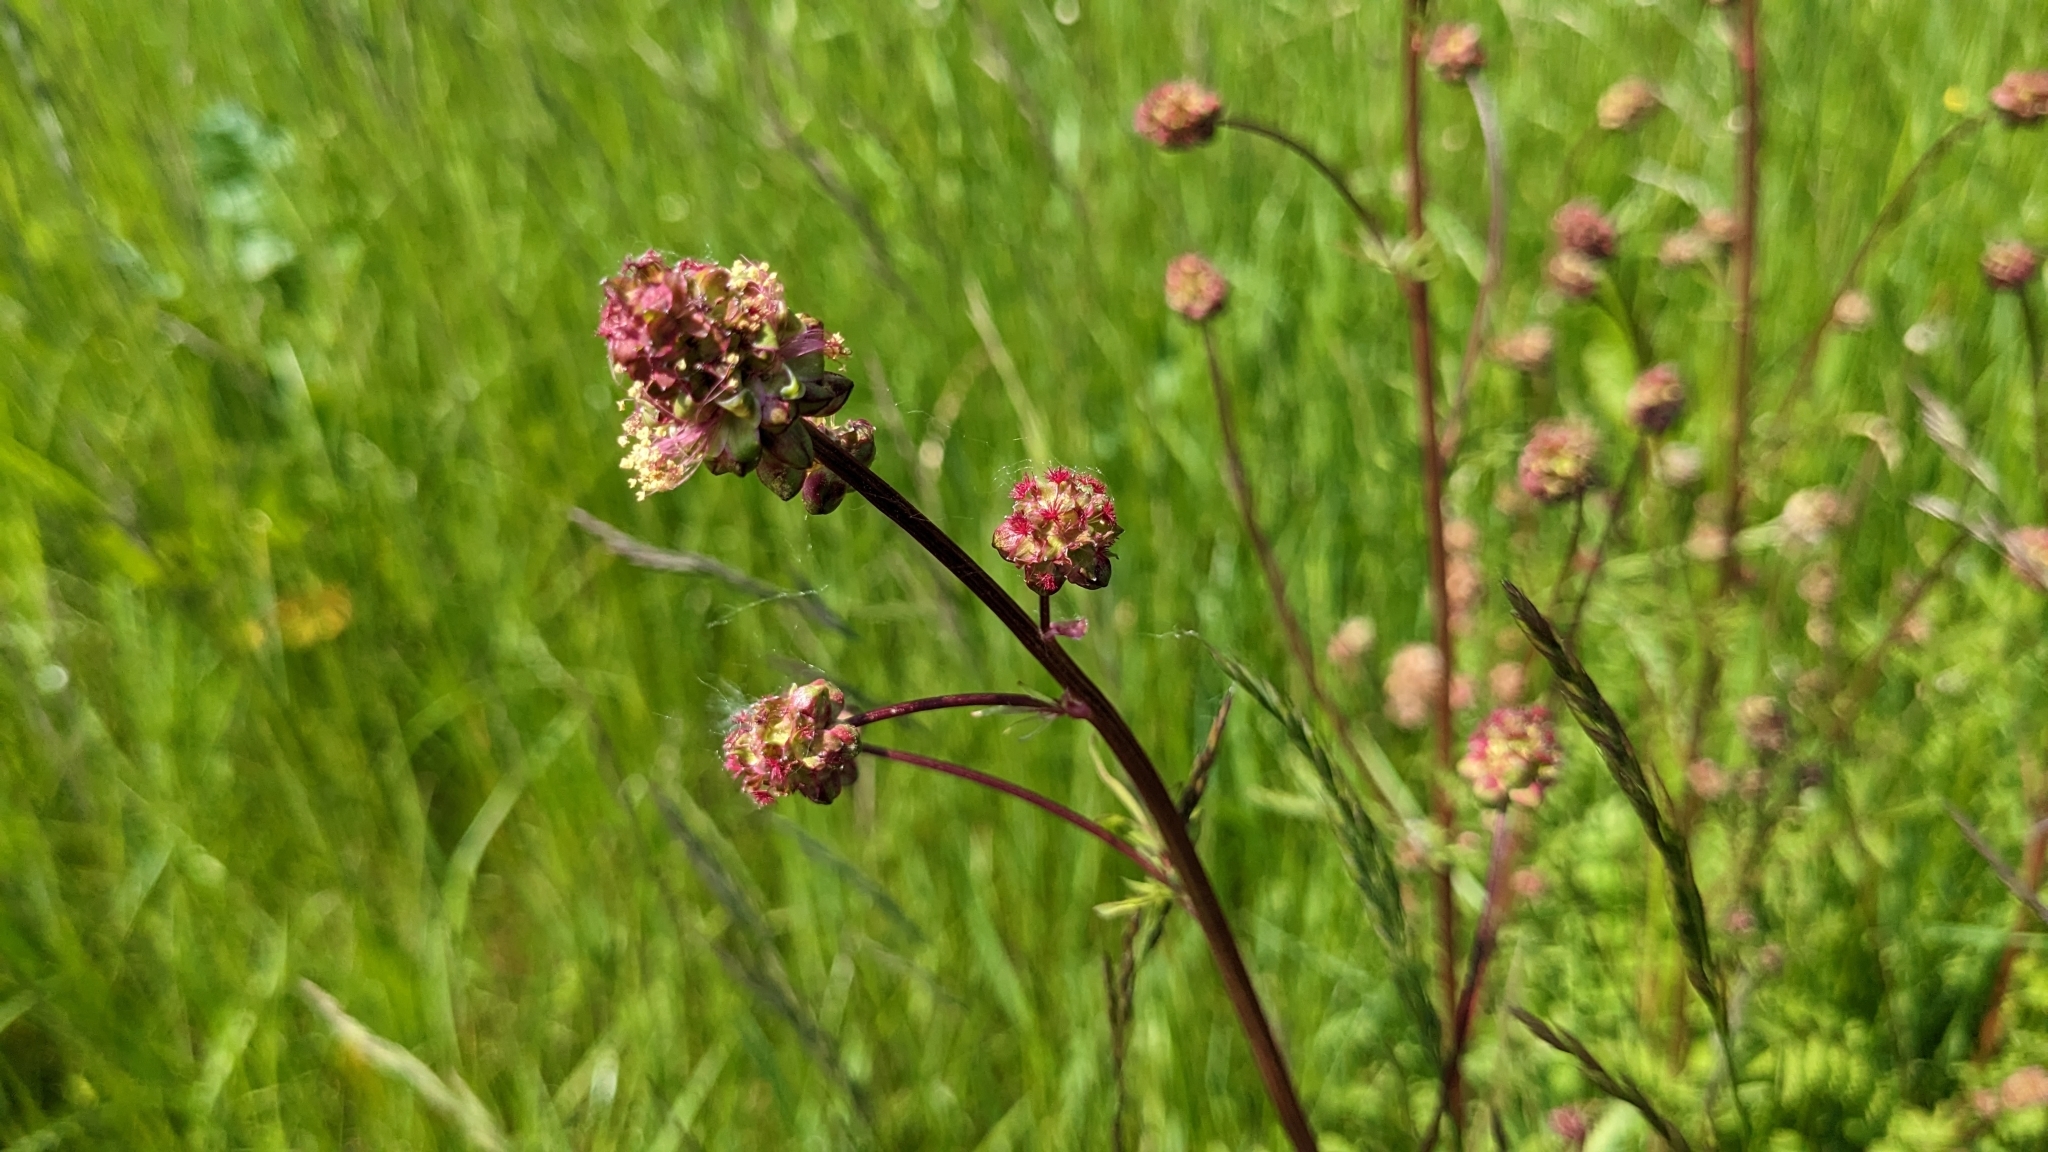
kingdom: Plantae
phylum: Tracheophyta
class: Magnoliopsida
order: Rosales
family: Rosaceae
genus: Poterium
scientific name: Poterium sanguisorba
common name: Salad burnet
